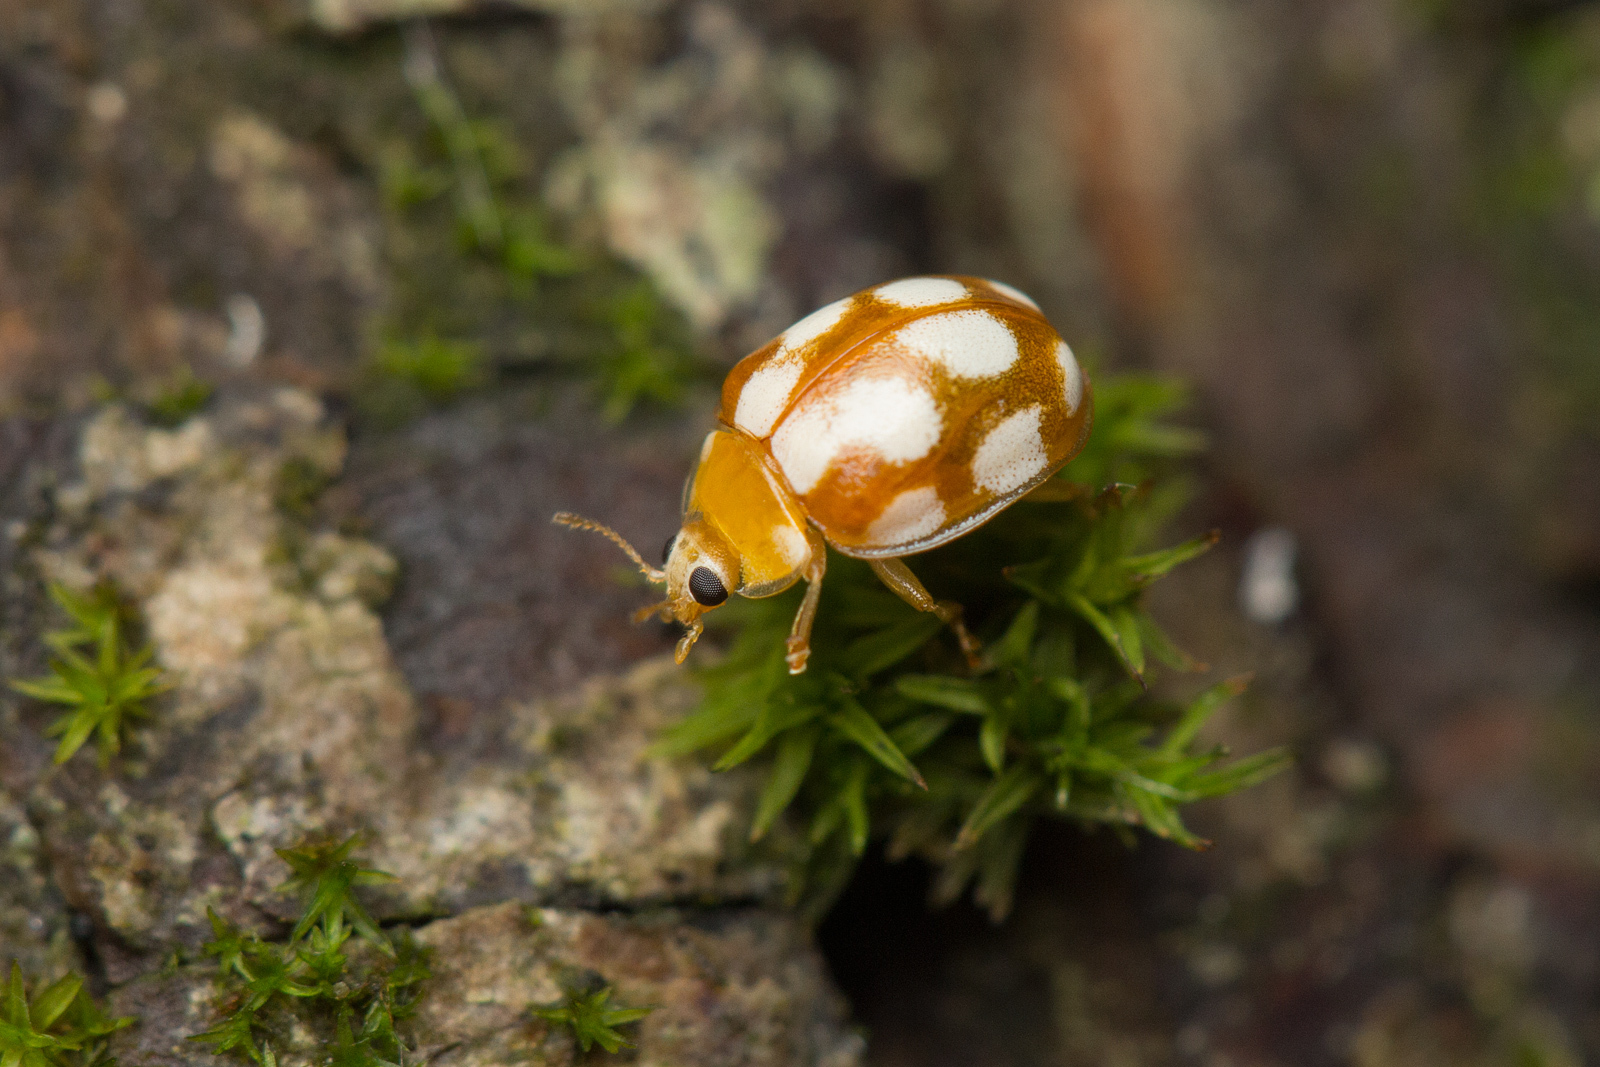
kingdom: Animalia
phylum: Arthropoda
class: Insecta
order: Coleoptera
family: Coccinellidae
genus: Vibidia
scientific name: Vibidia duodecimguttata
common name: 12-spot ladybird
